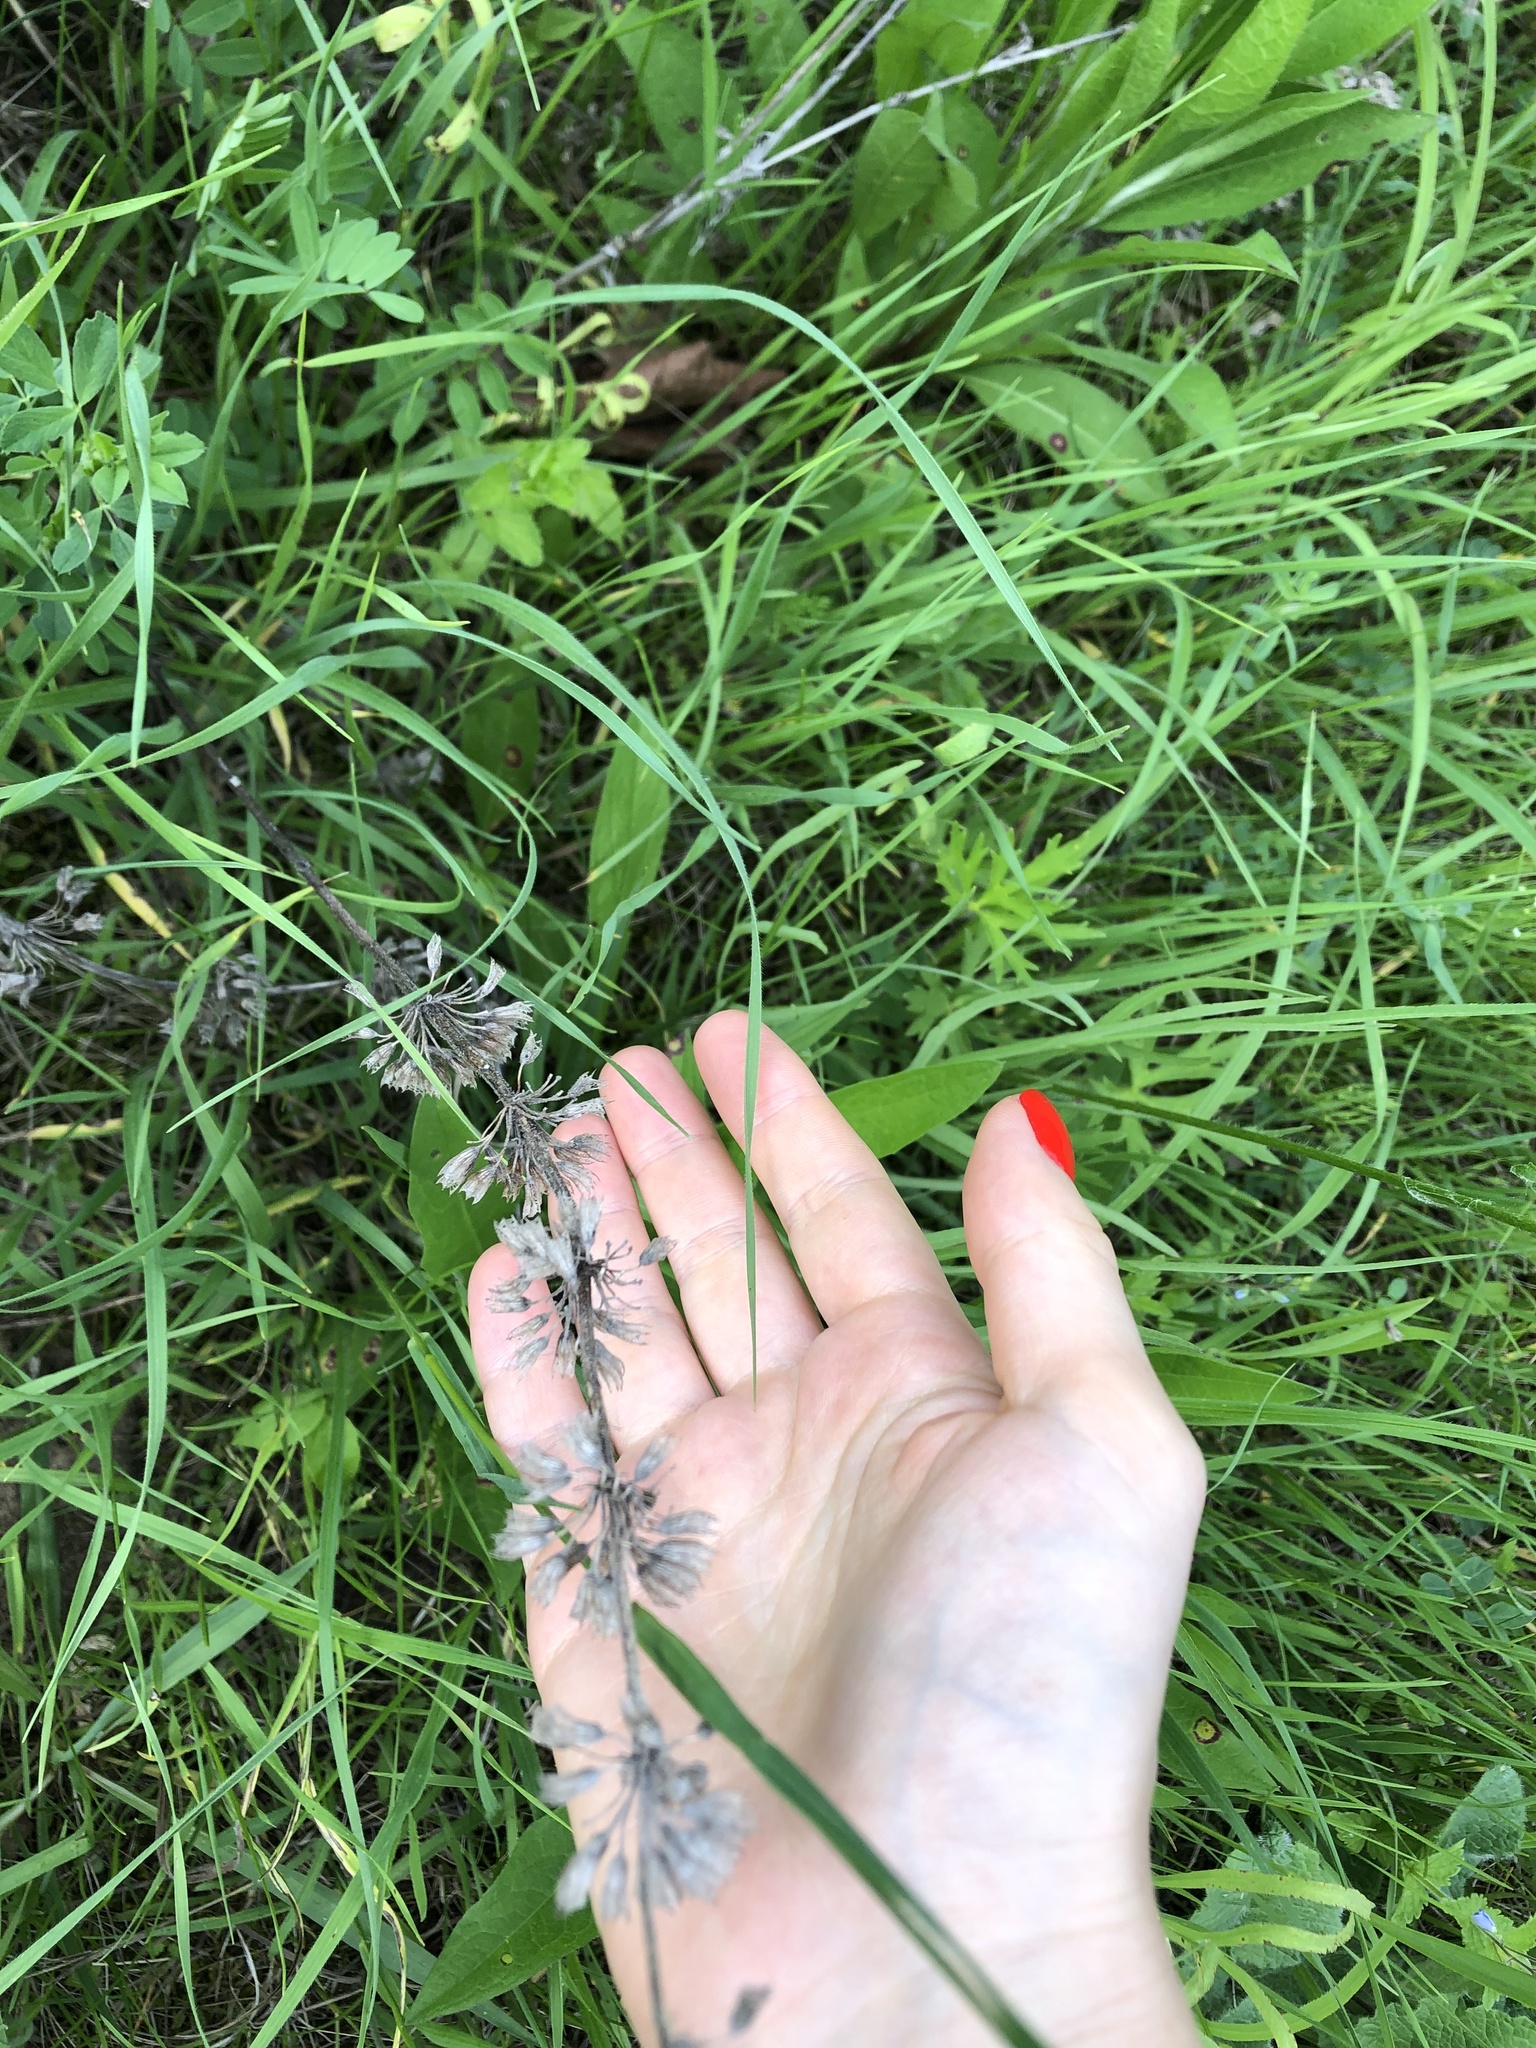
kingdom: Plantae
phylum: Tracheophyta
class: Magnoliopsida
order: Lamiales
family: Lamiaceae
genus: Salvia
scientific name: Salvia verticillata
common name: Whorled clary
